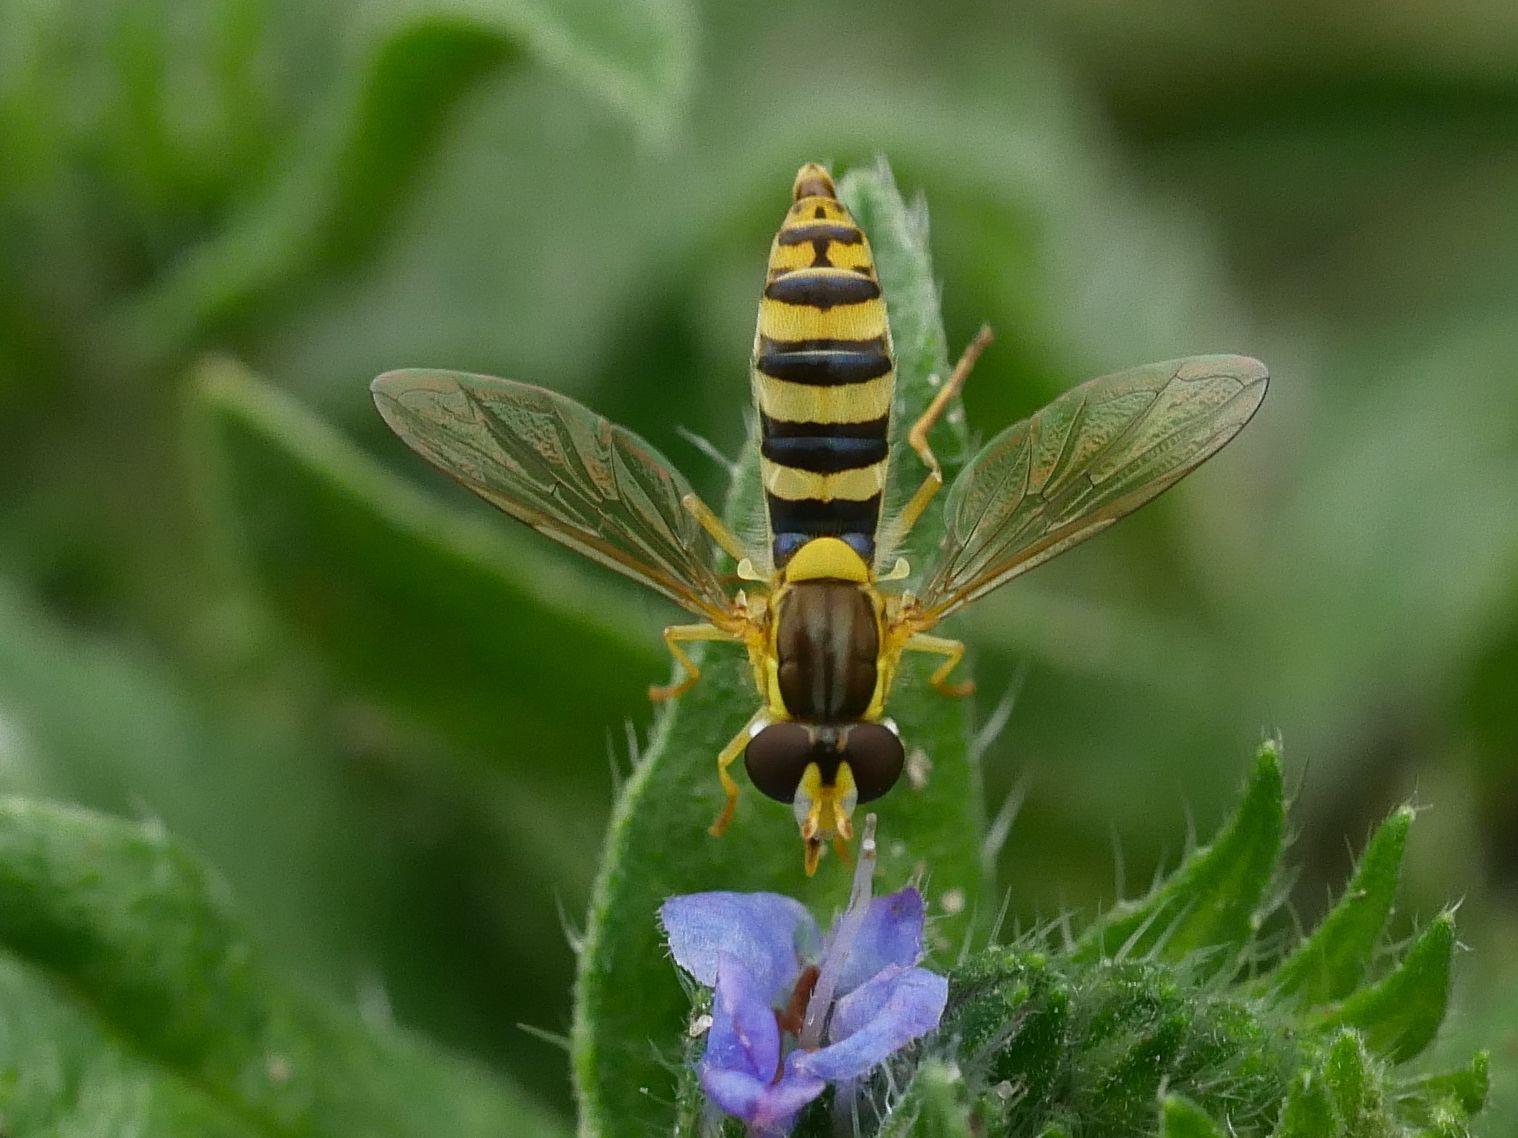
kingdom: Animalia
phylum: Arthropoda
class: Insecta
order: Diptera
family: Syrphidae
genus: Sphaerophoria
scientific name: Sphaerophoria
